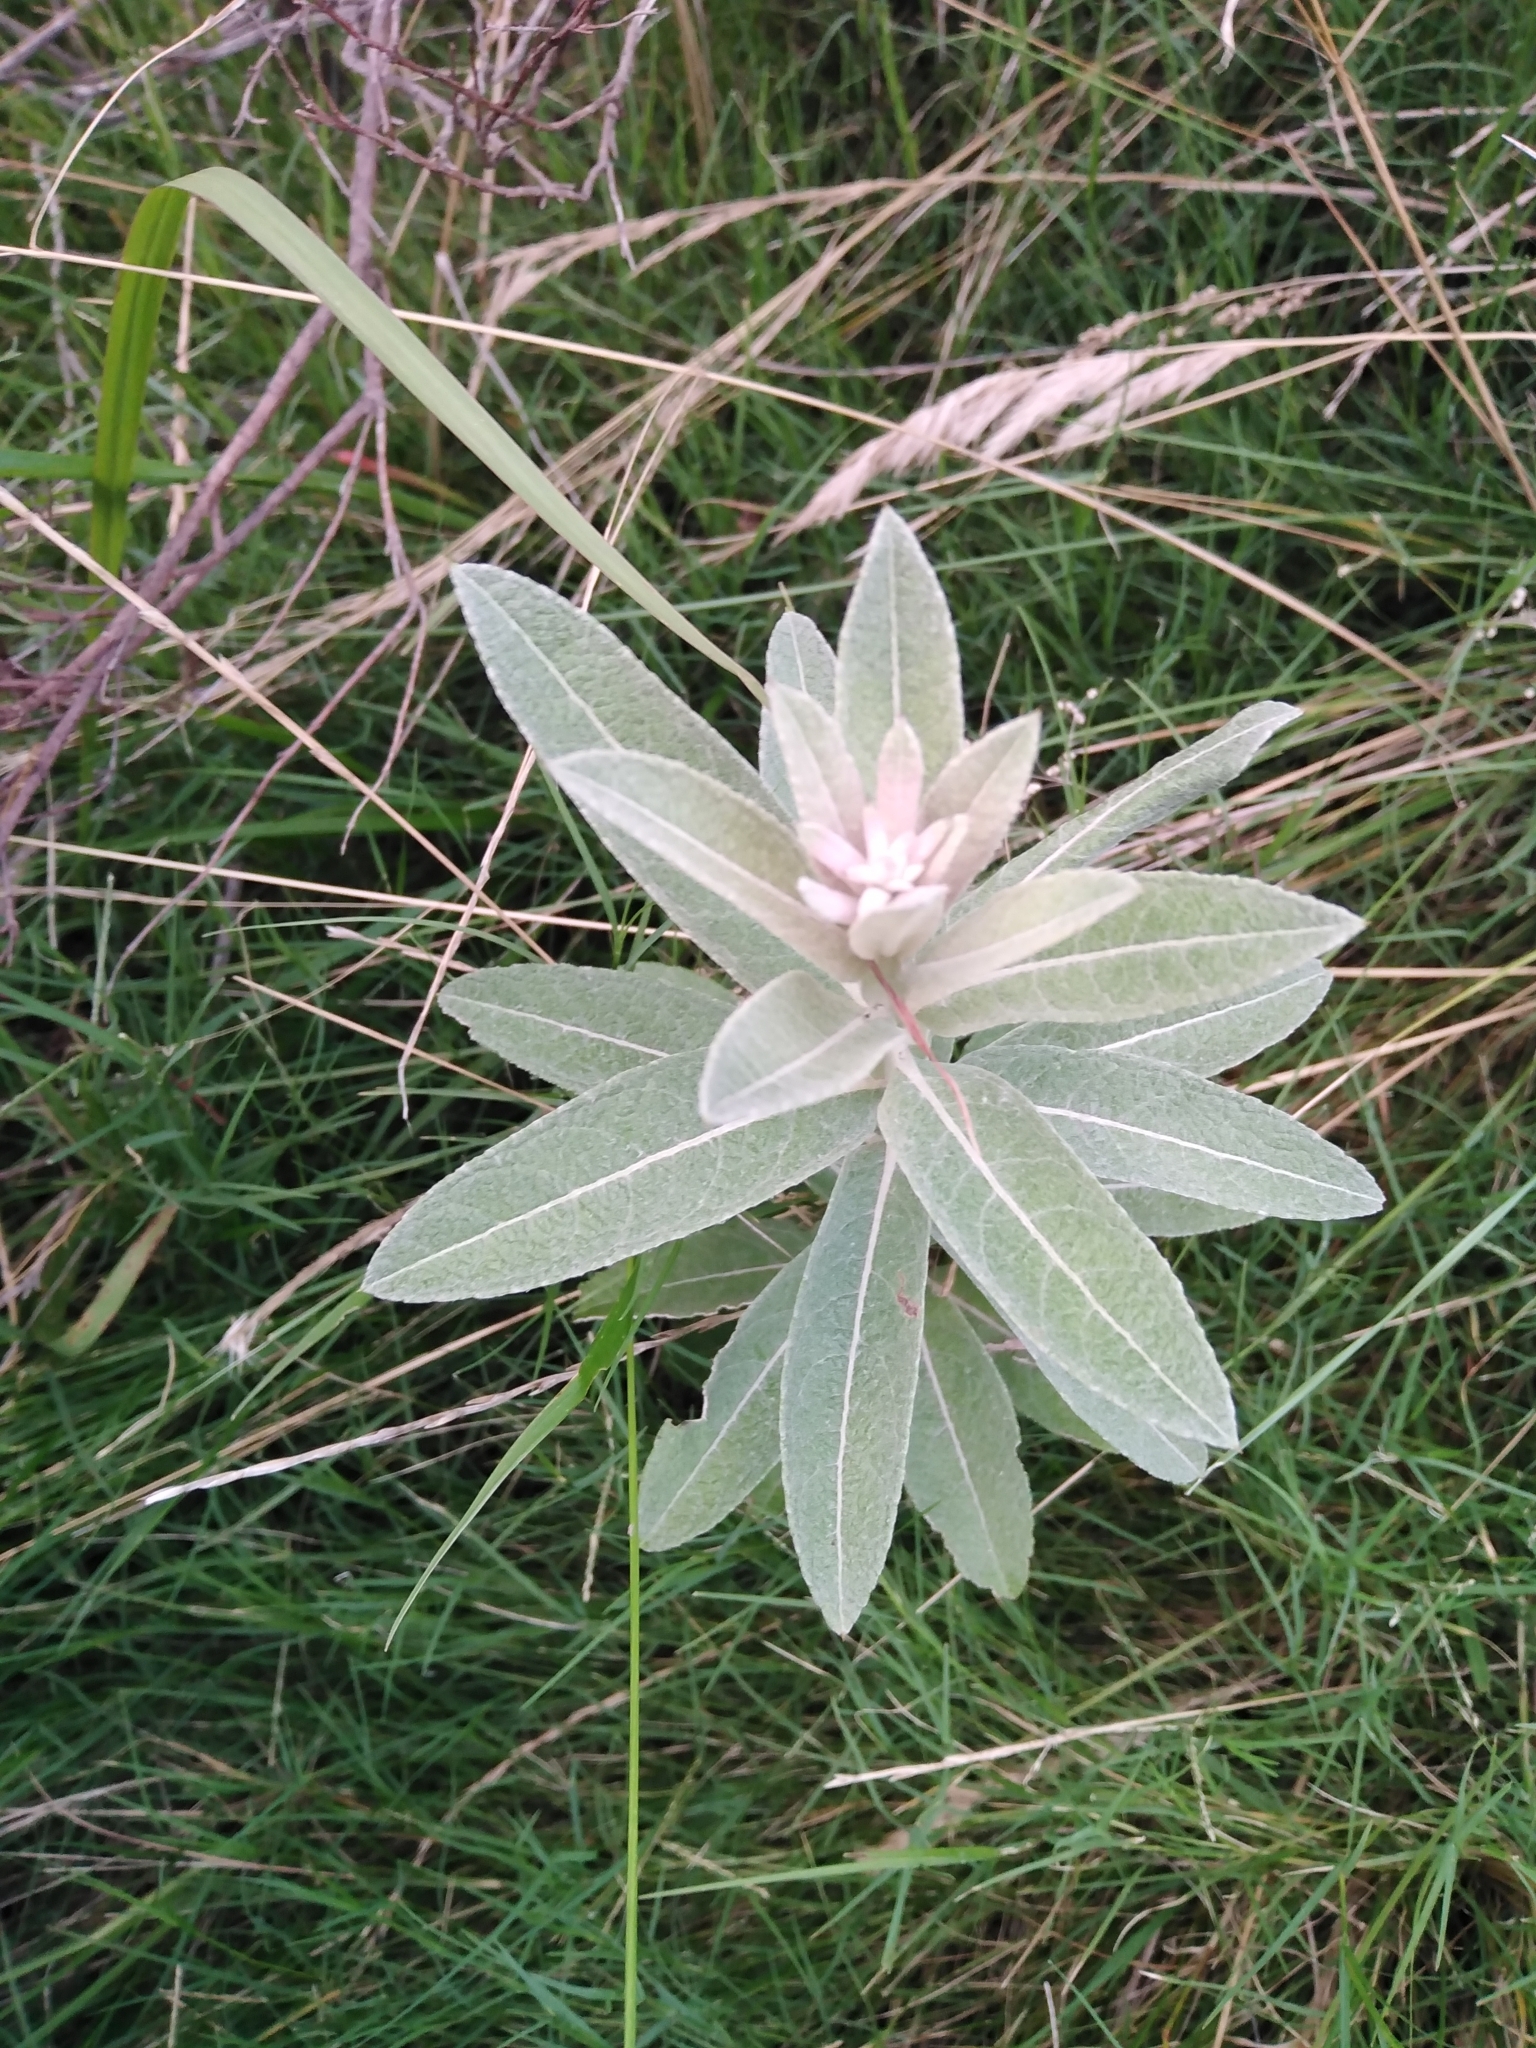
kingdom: Plantae
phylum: Tracheophyta
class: Magnoliopsida
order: Asterales
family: Asteraceae
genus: Pterocaulon
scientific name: Pterocaulon balansae
